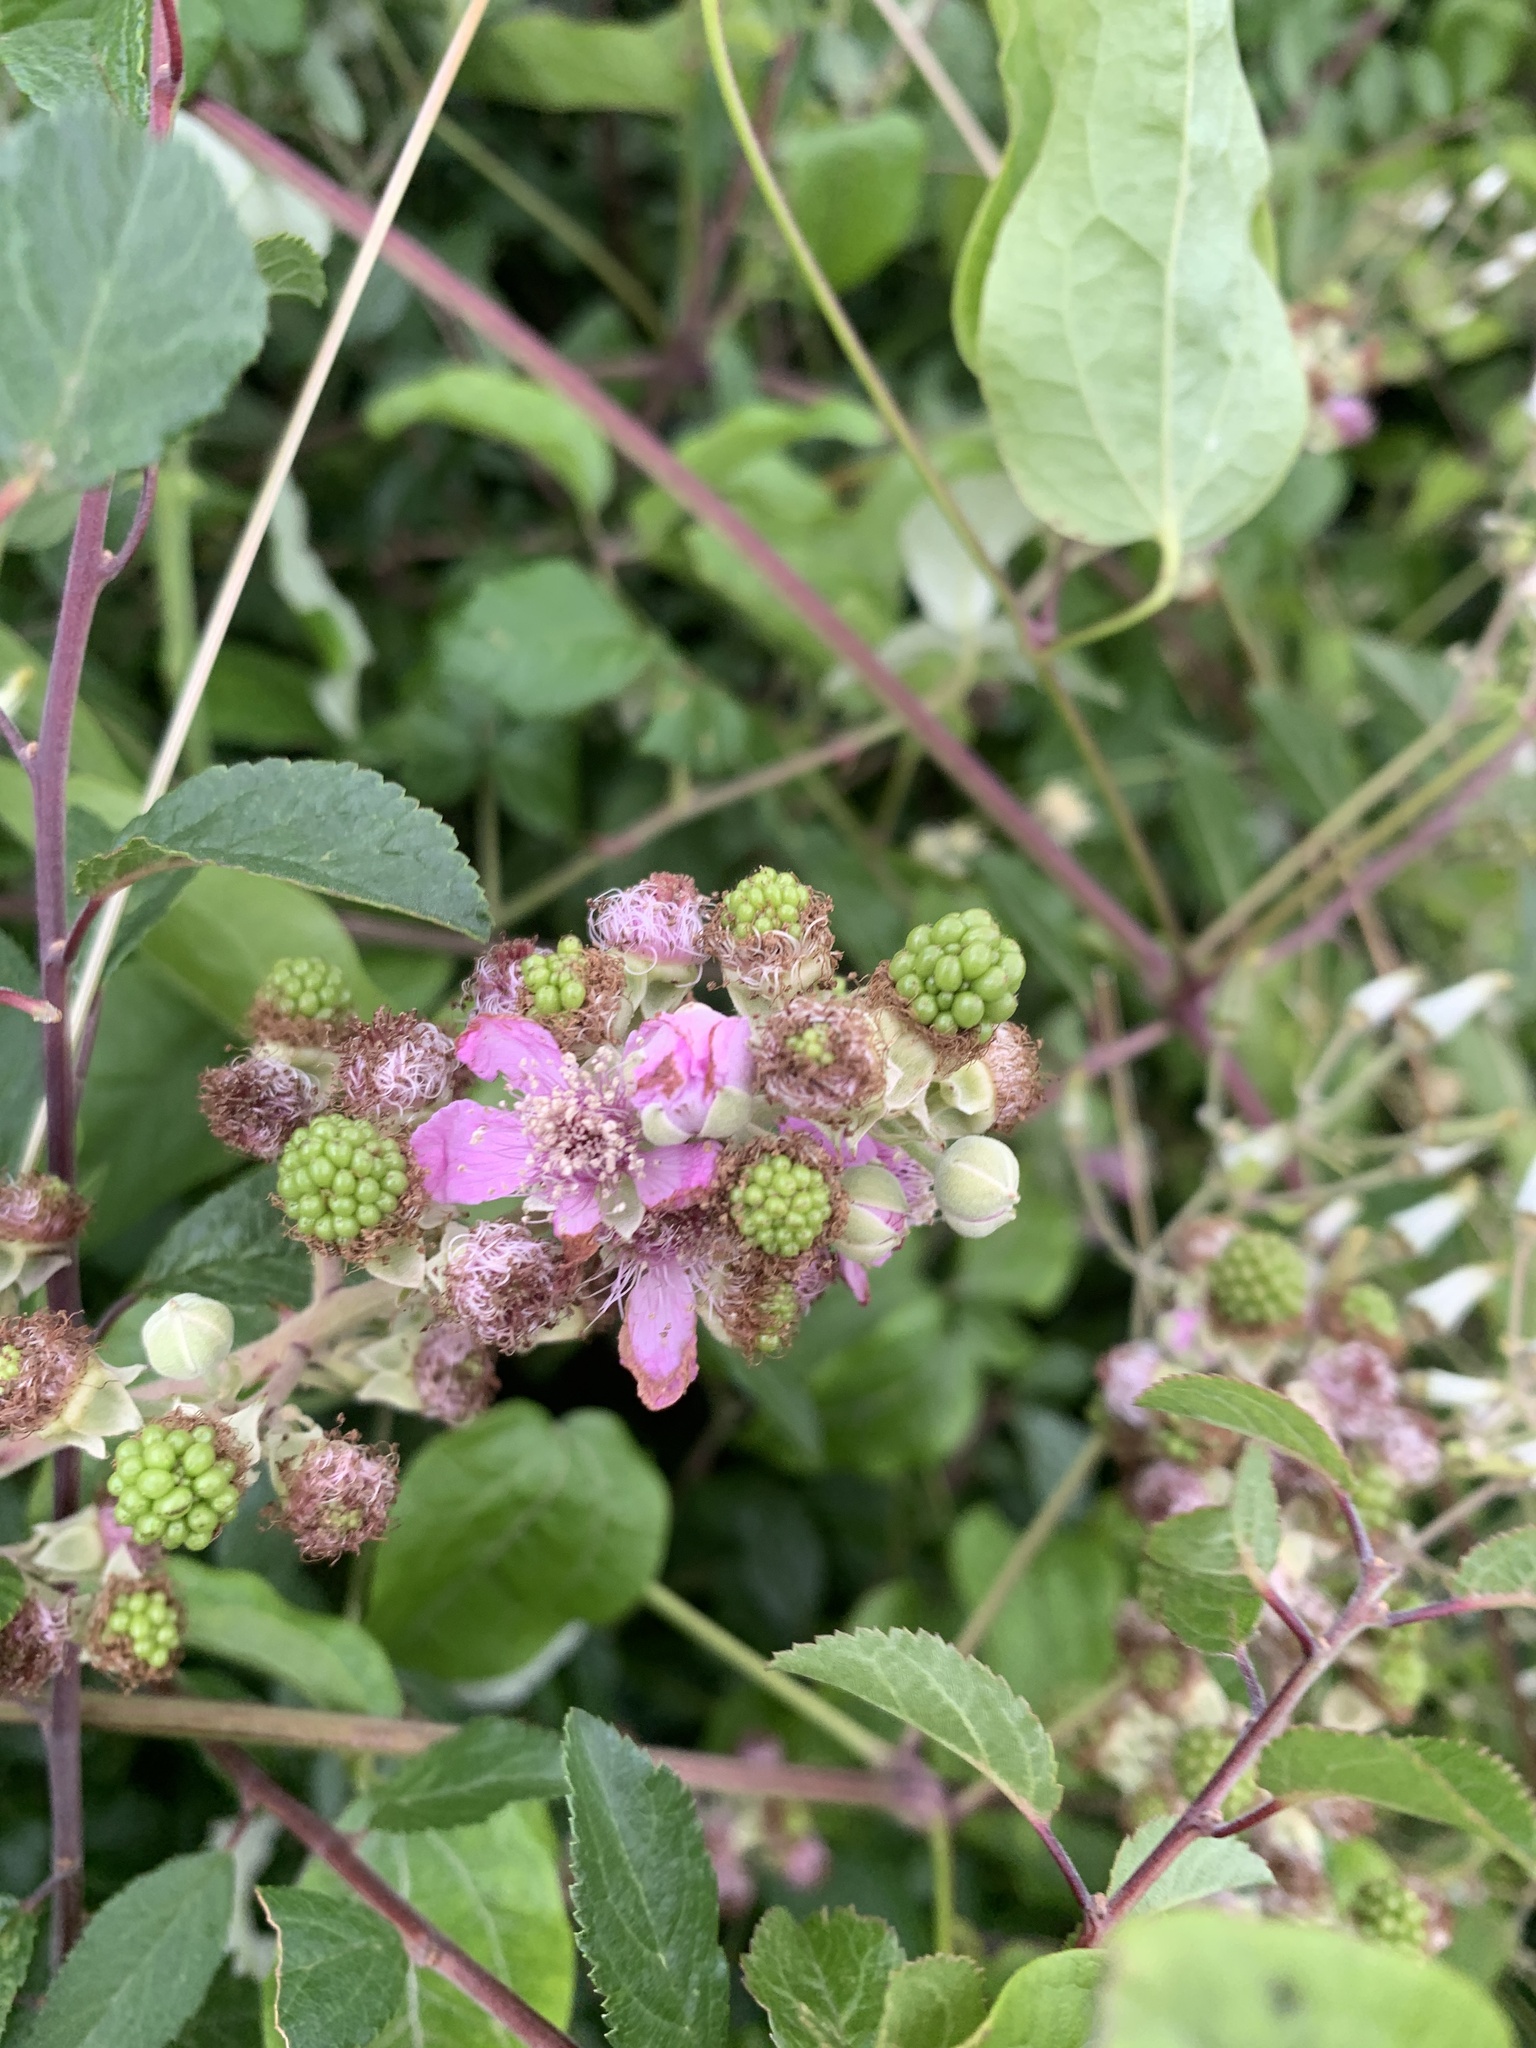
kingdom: Plantae
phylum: Tracheophyta
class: Magnoliopsida
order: Rosales
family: Rosaceae
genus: Rubus
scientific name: Rubus fruticosus
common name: Blackberry, bramble
